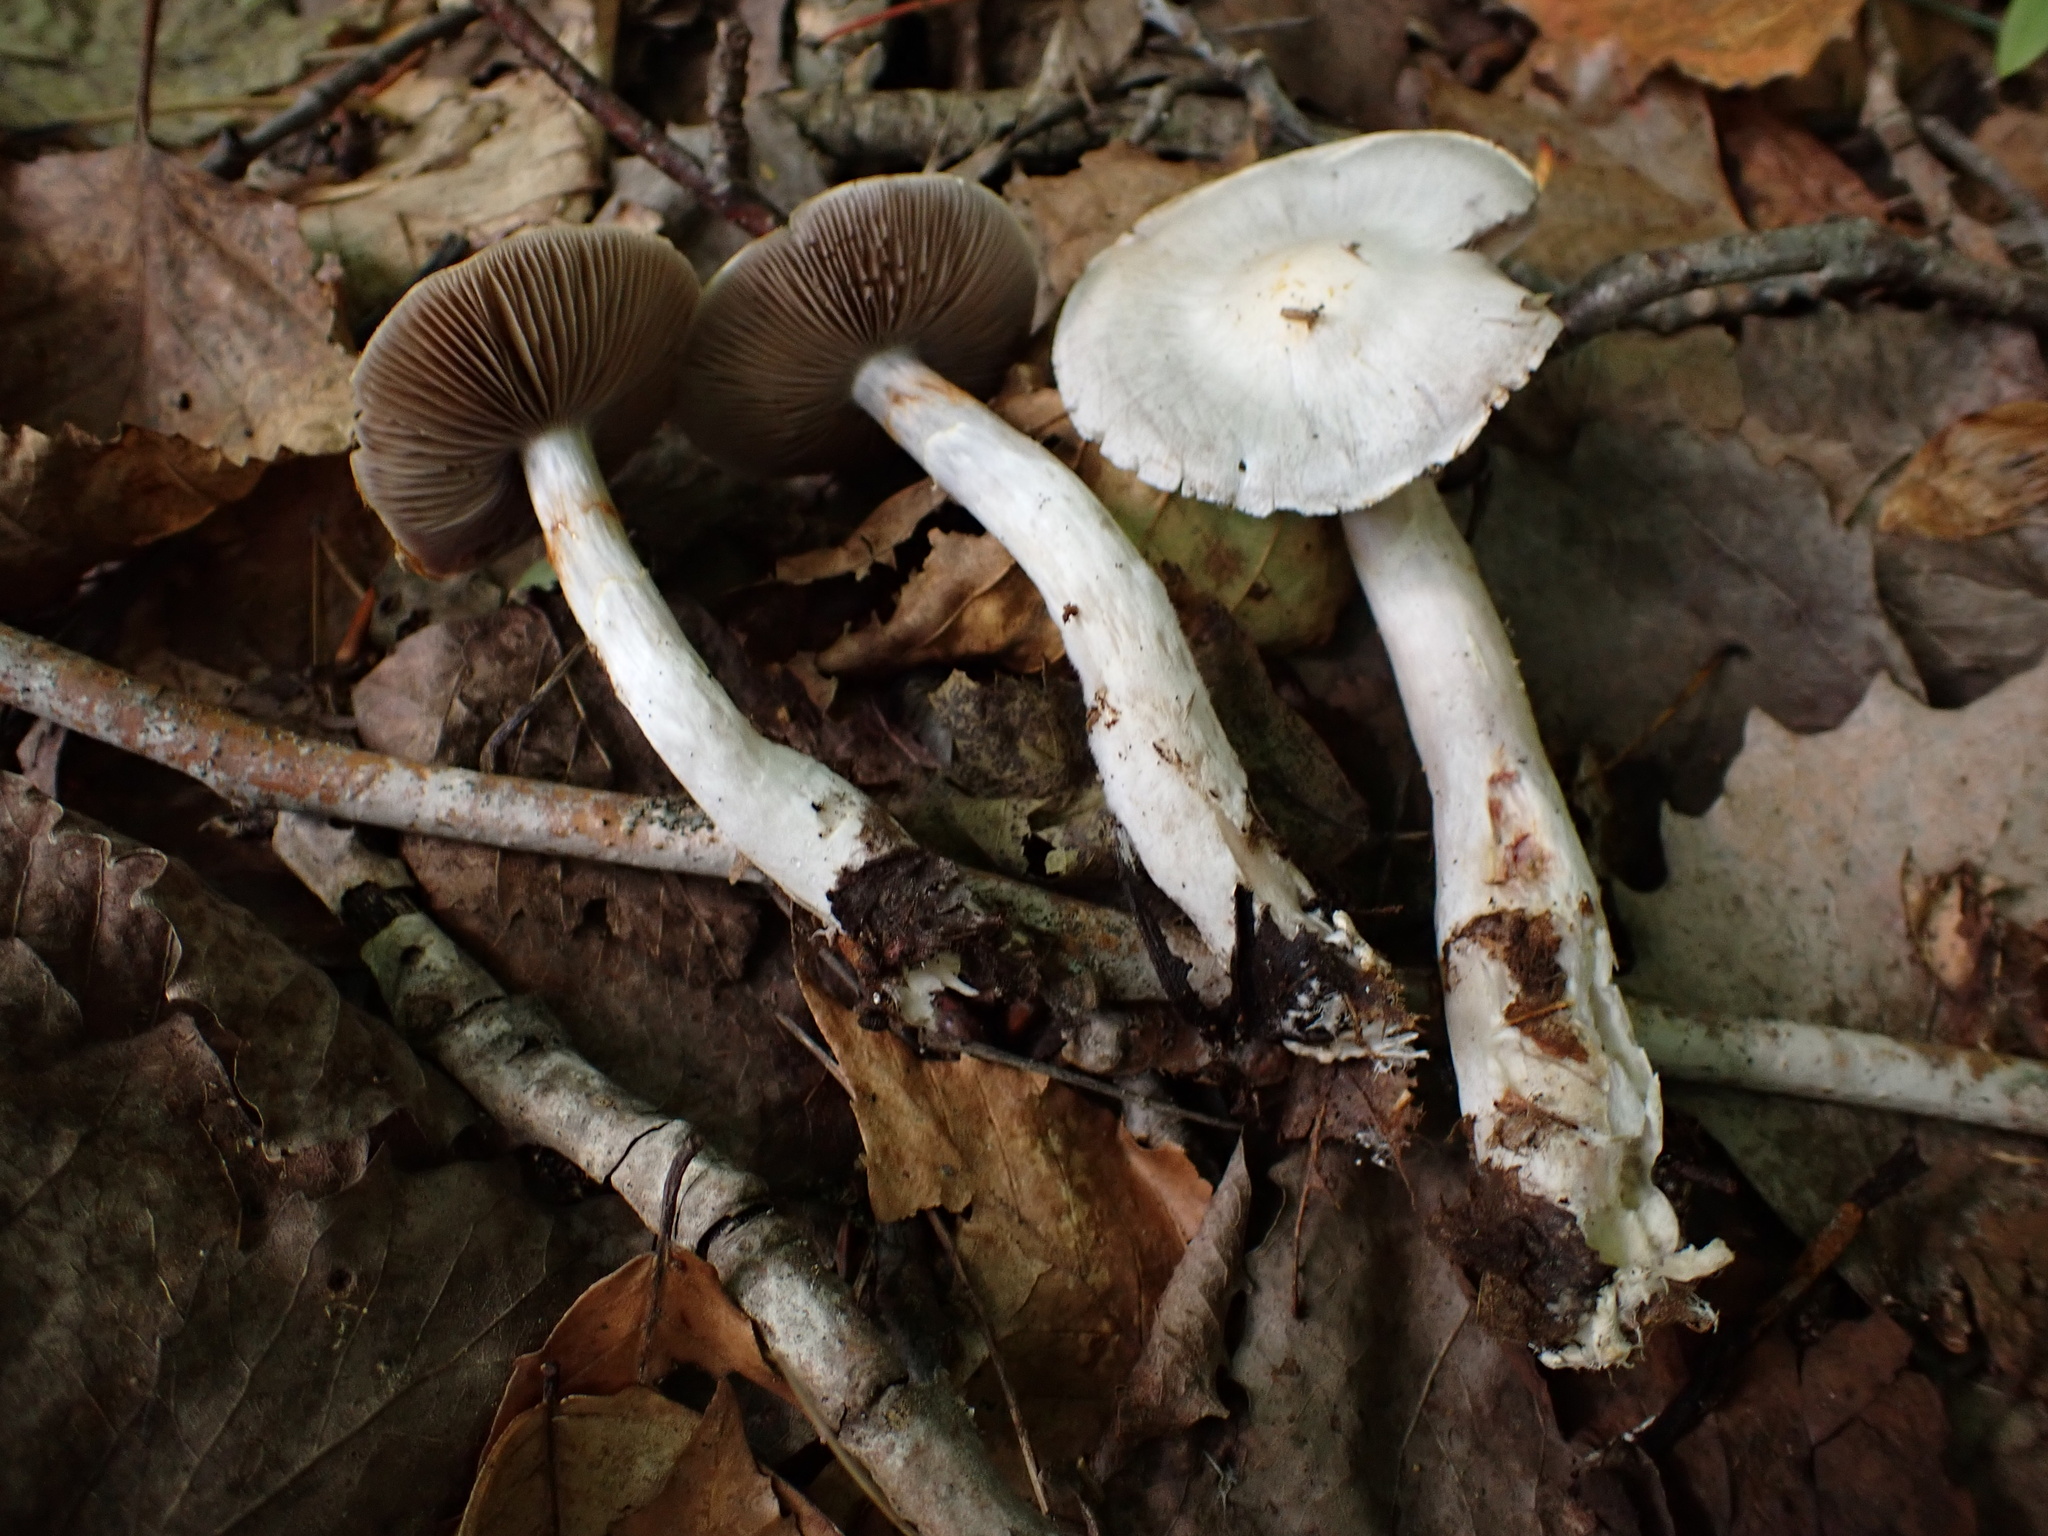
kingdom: Fungi
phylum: Basidiomycota
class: Agaricomycetes
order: Agaricales
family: Cortinariaceae
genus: Cortinarius
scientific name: Cortinarius alboviolaceus
